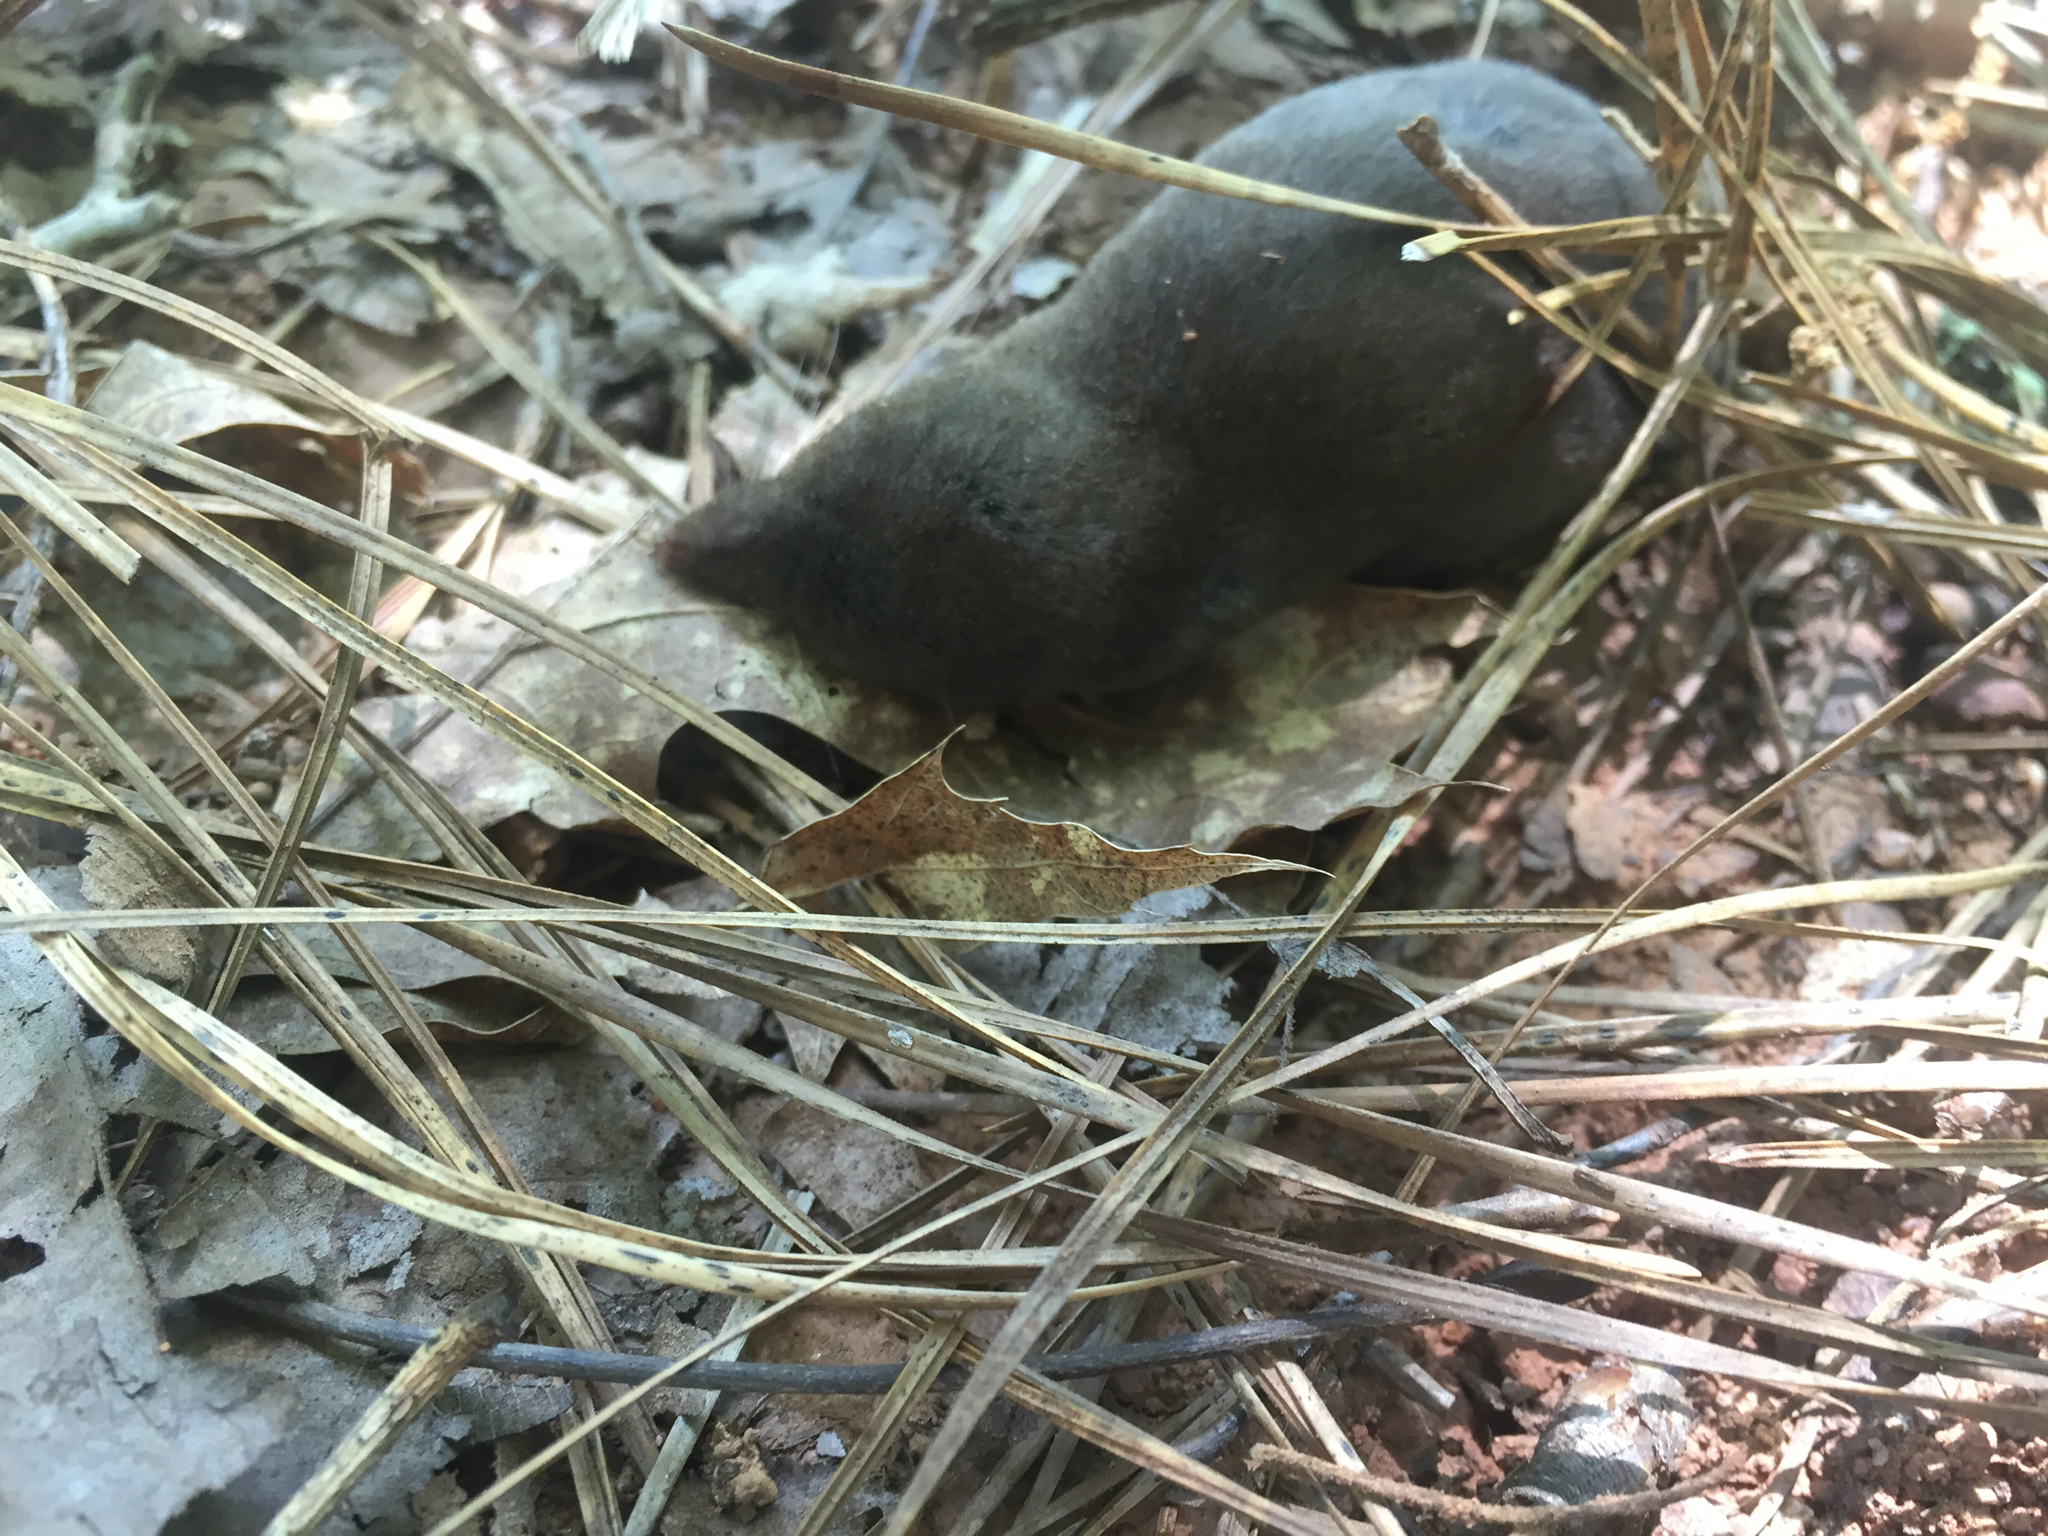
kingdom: Animalia
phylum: Chordata
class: Mammalia
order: Soricomorpha
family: Soricidae
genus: Blarina
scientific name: Blarina carolinensis
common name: Southern short-tailed shrew
